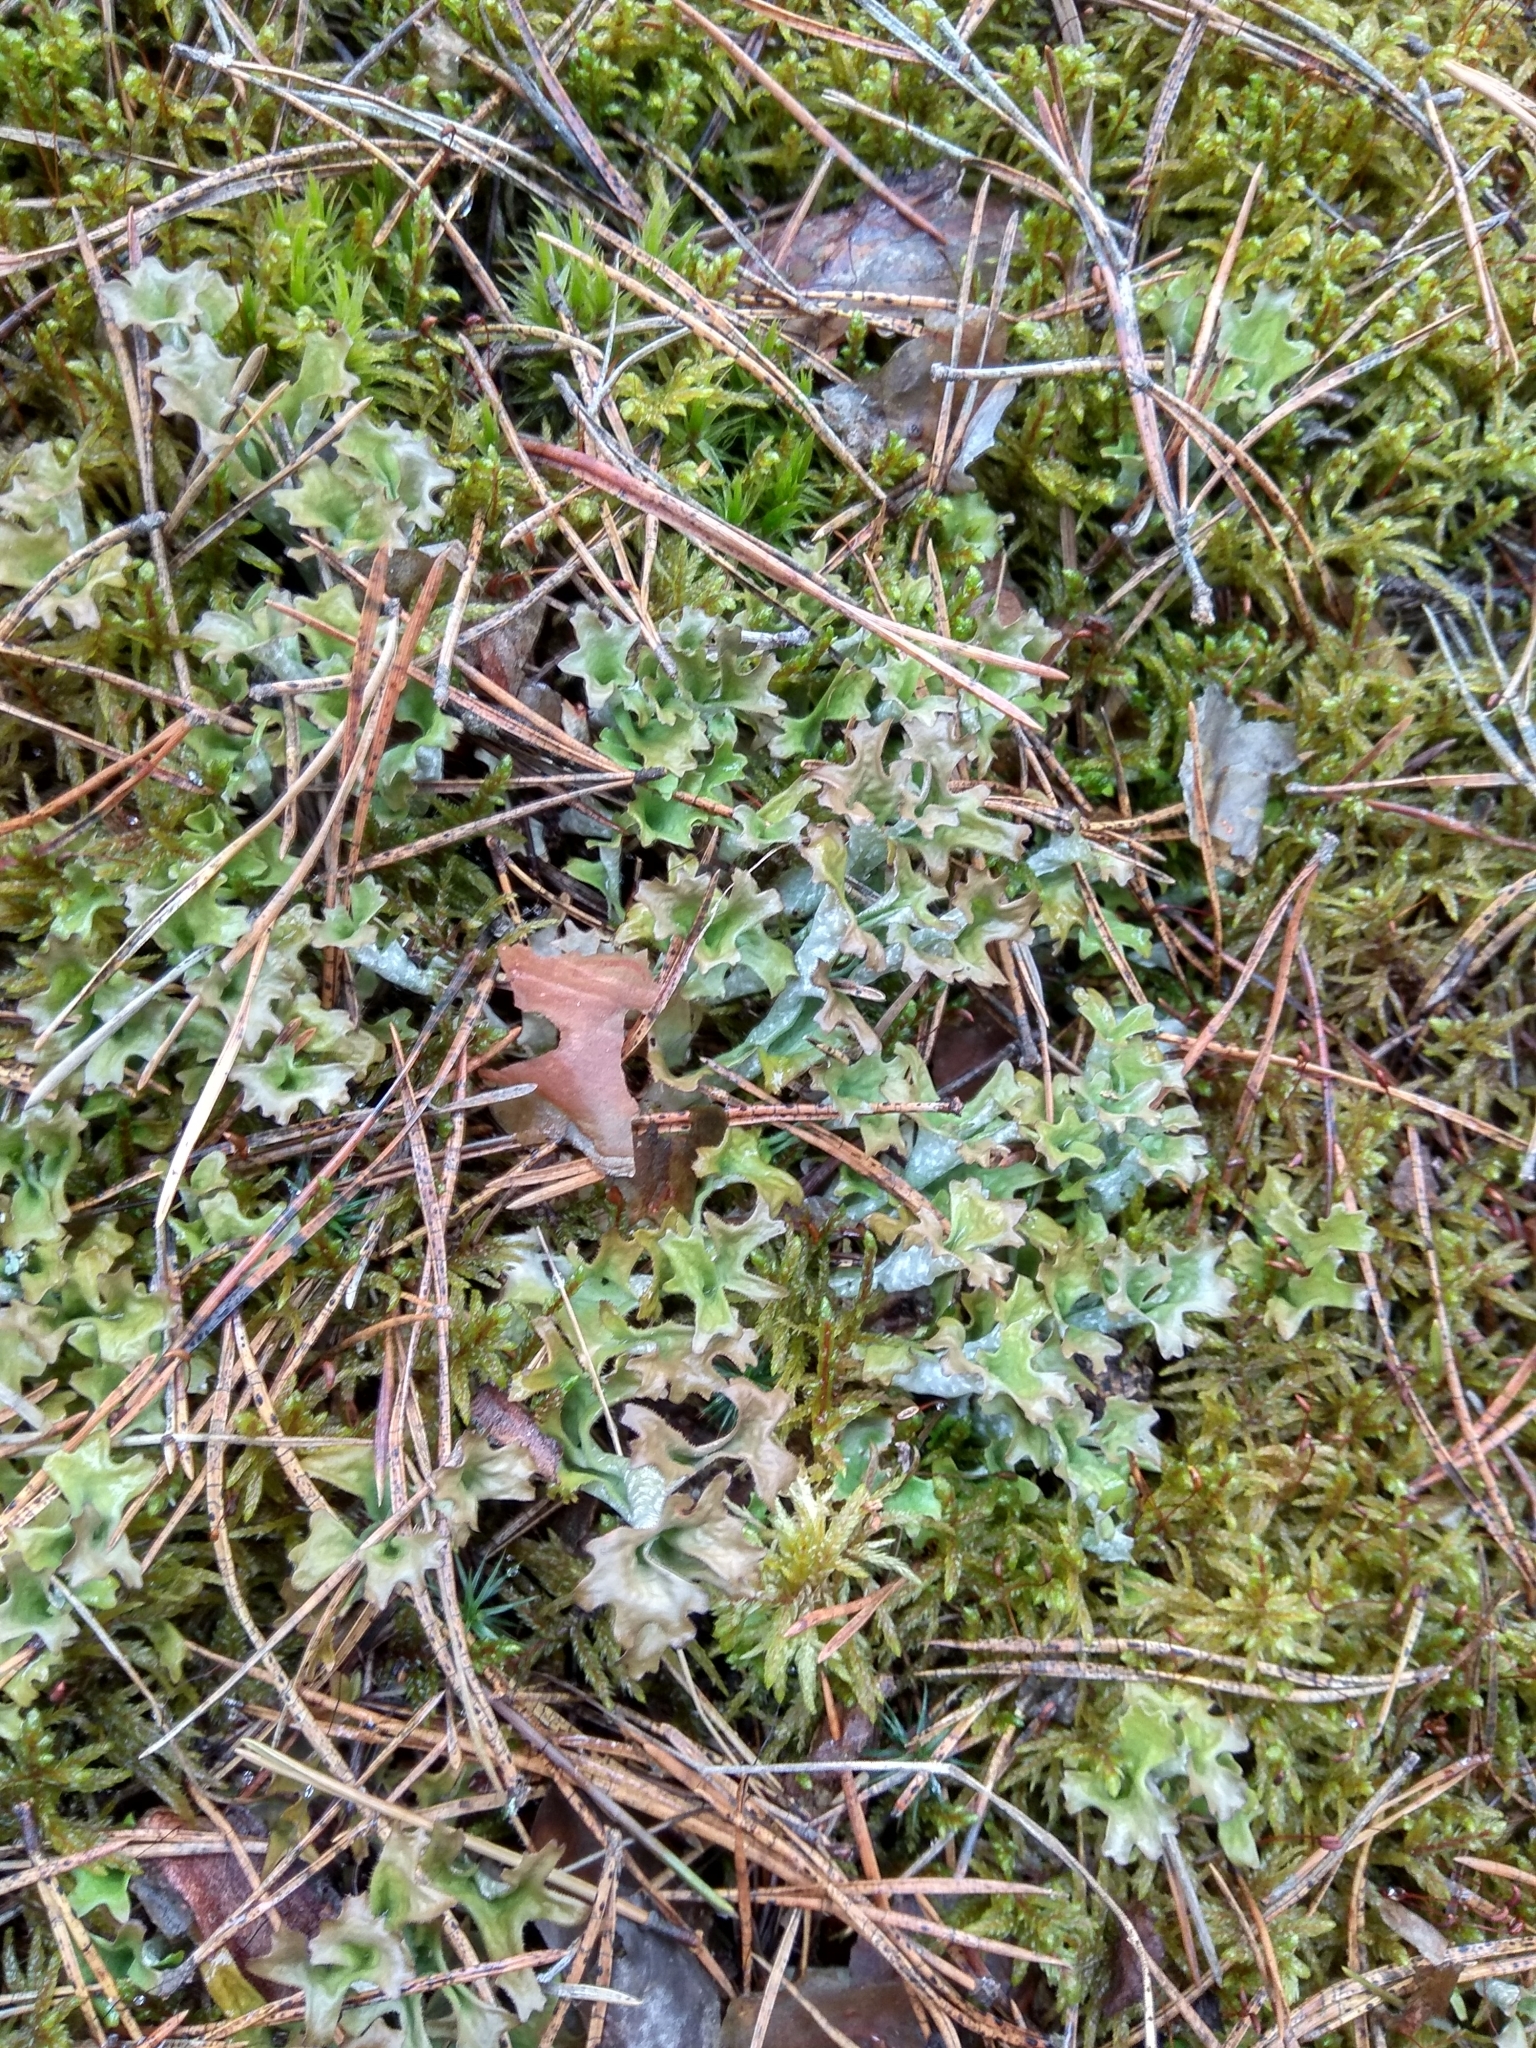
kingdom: Fungi
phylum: Ascomycota
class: Lecanoromycetes
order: Lecanorales
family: Parmeliaceae
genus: Cetraria
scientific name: Cetraria islandica
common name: Iceland lichen
